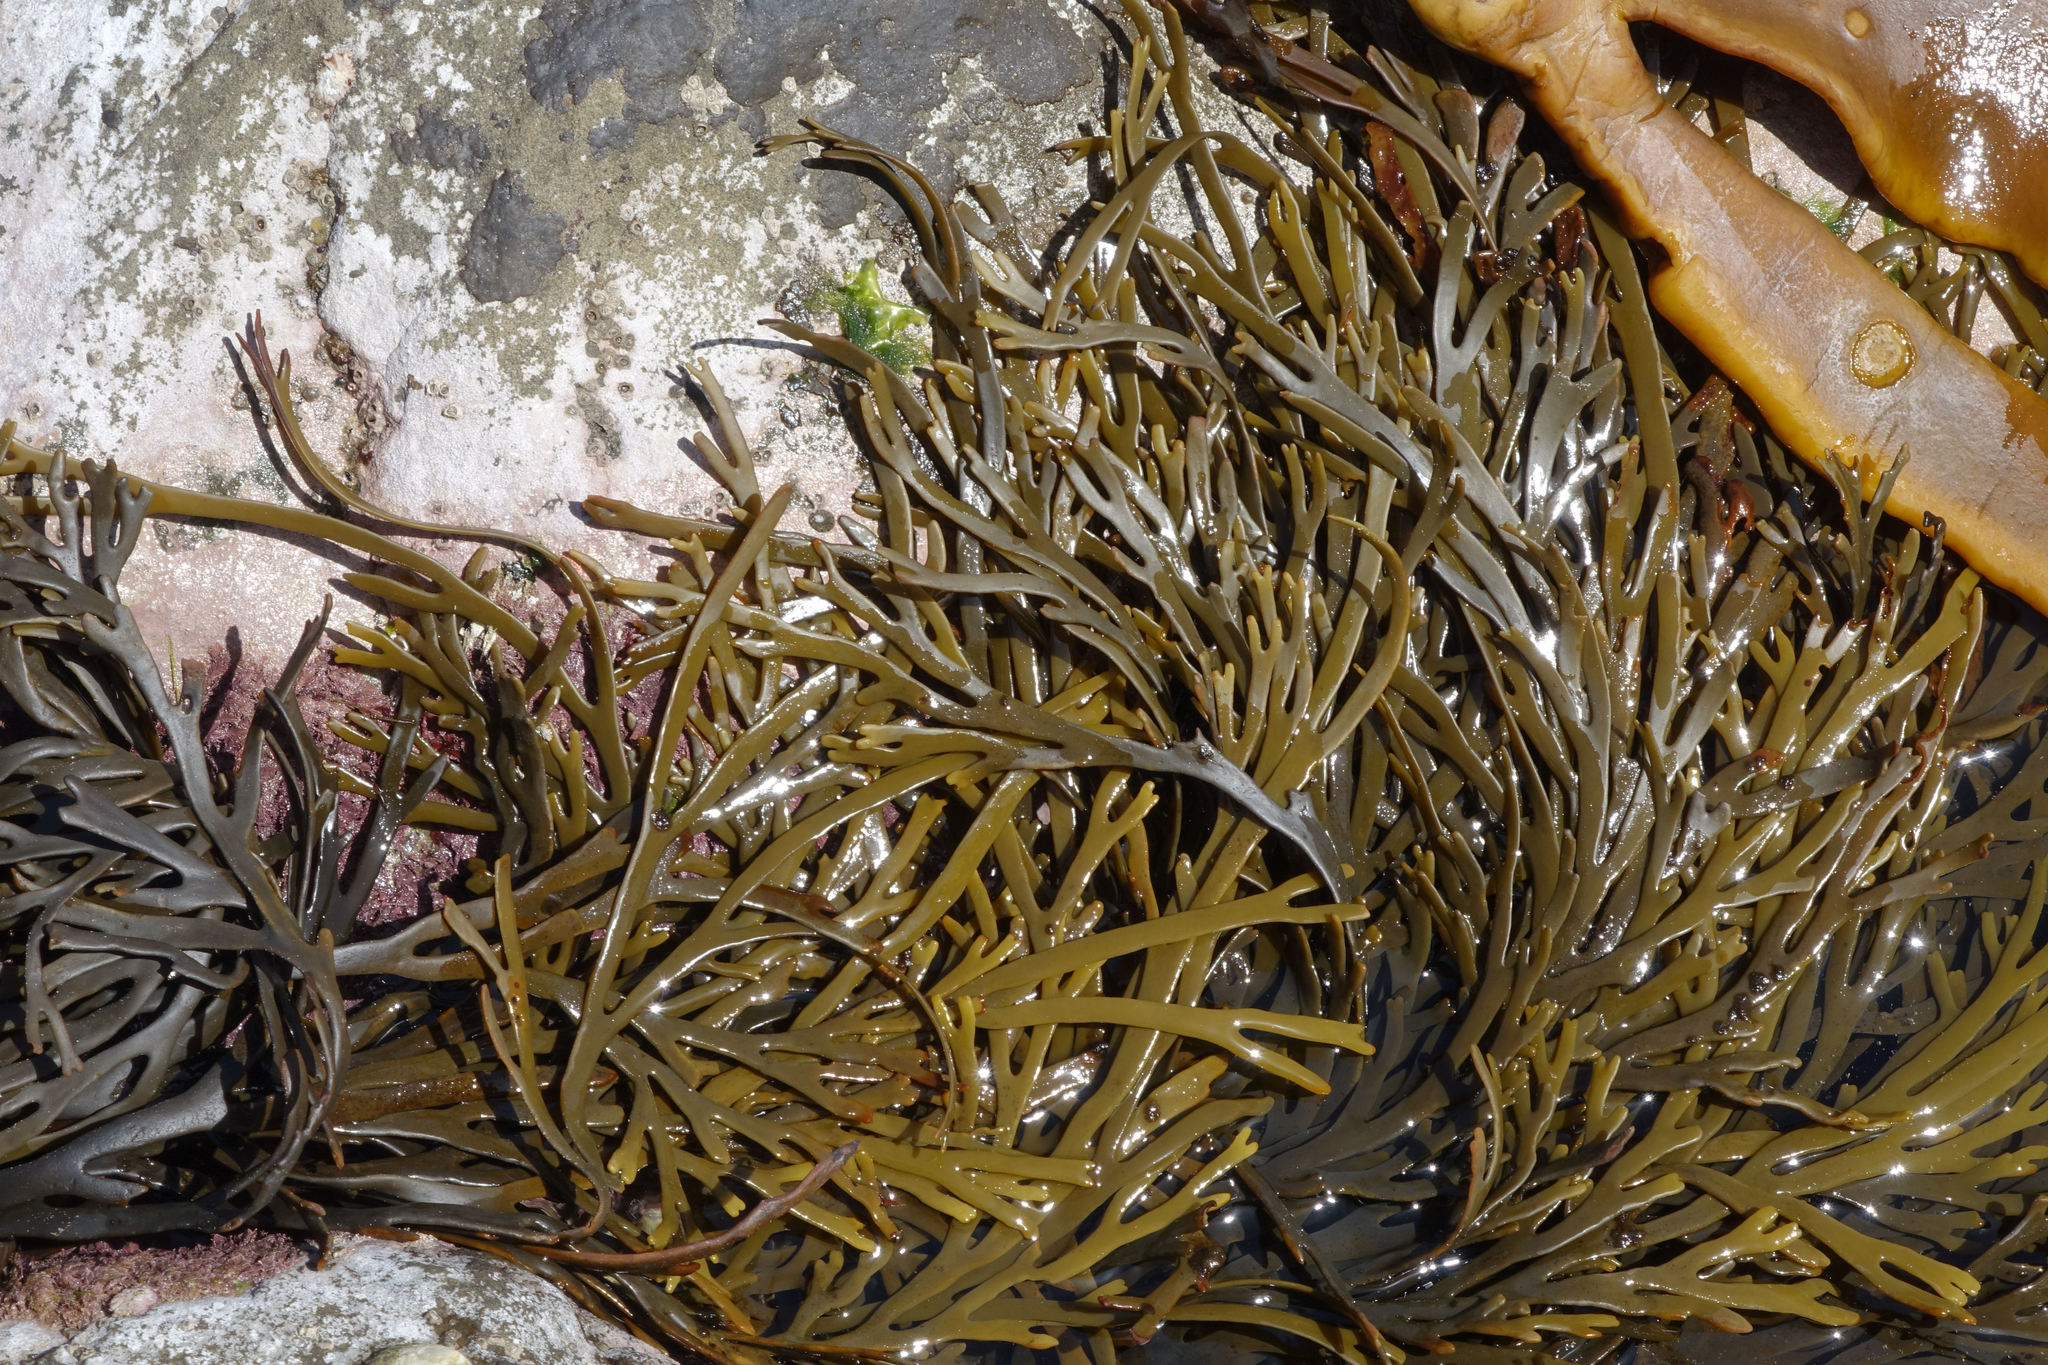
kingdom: Chromista
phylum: Ochrophyta
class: Phaeophyceae
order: Fucales
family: Xiphophoraceae
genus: Xiphophora
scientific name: Xiphophora gladiata
